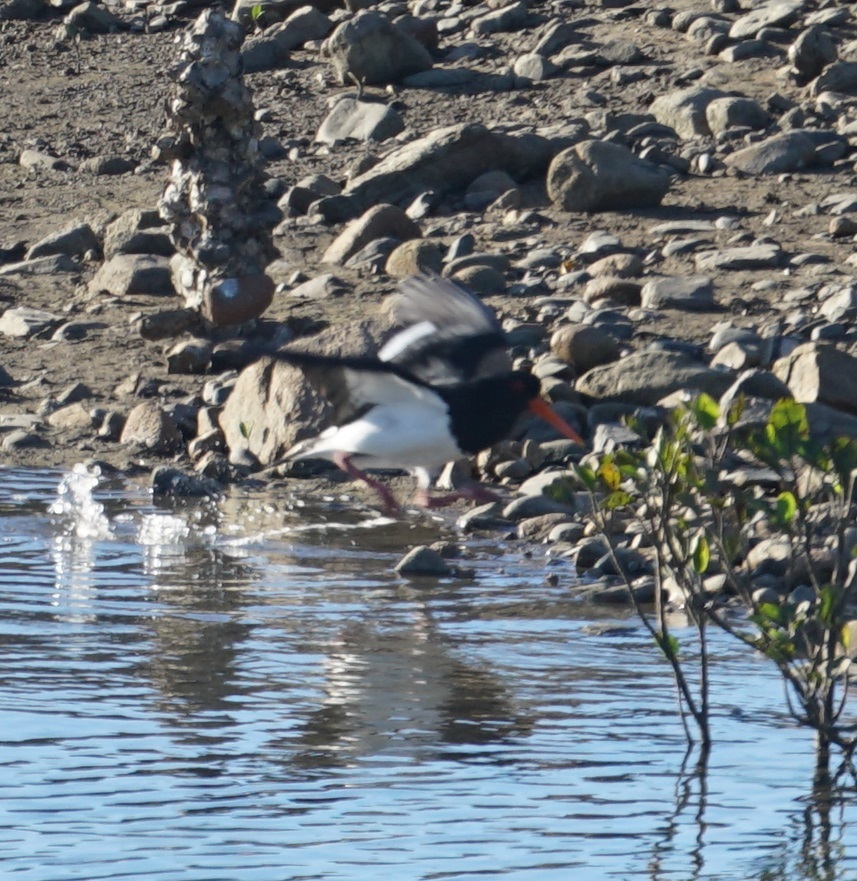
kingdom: Animalia
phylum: Chordata
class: Aves
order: Charadriiformes
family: Haematopodidae
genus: Haematopus
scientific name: Haematopus longirostris
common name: Pied oystercatcher
